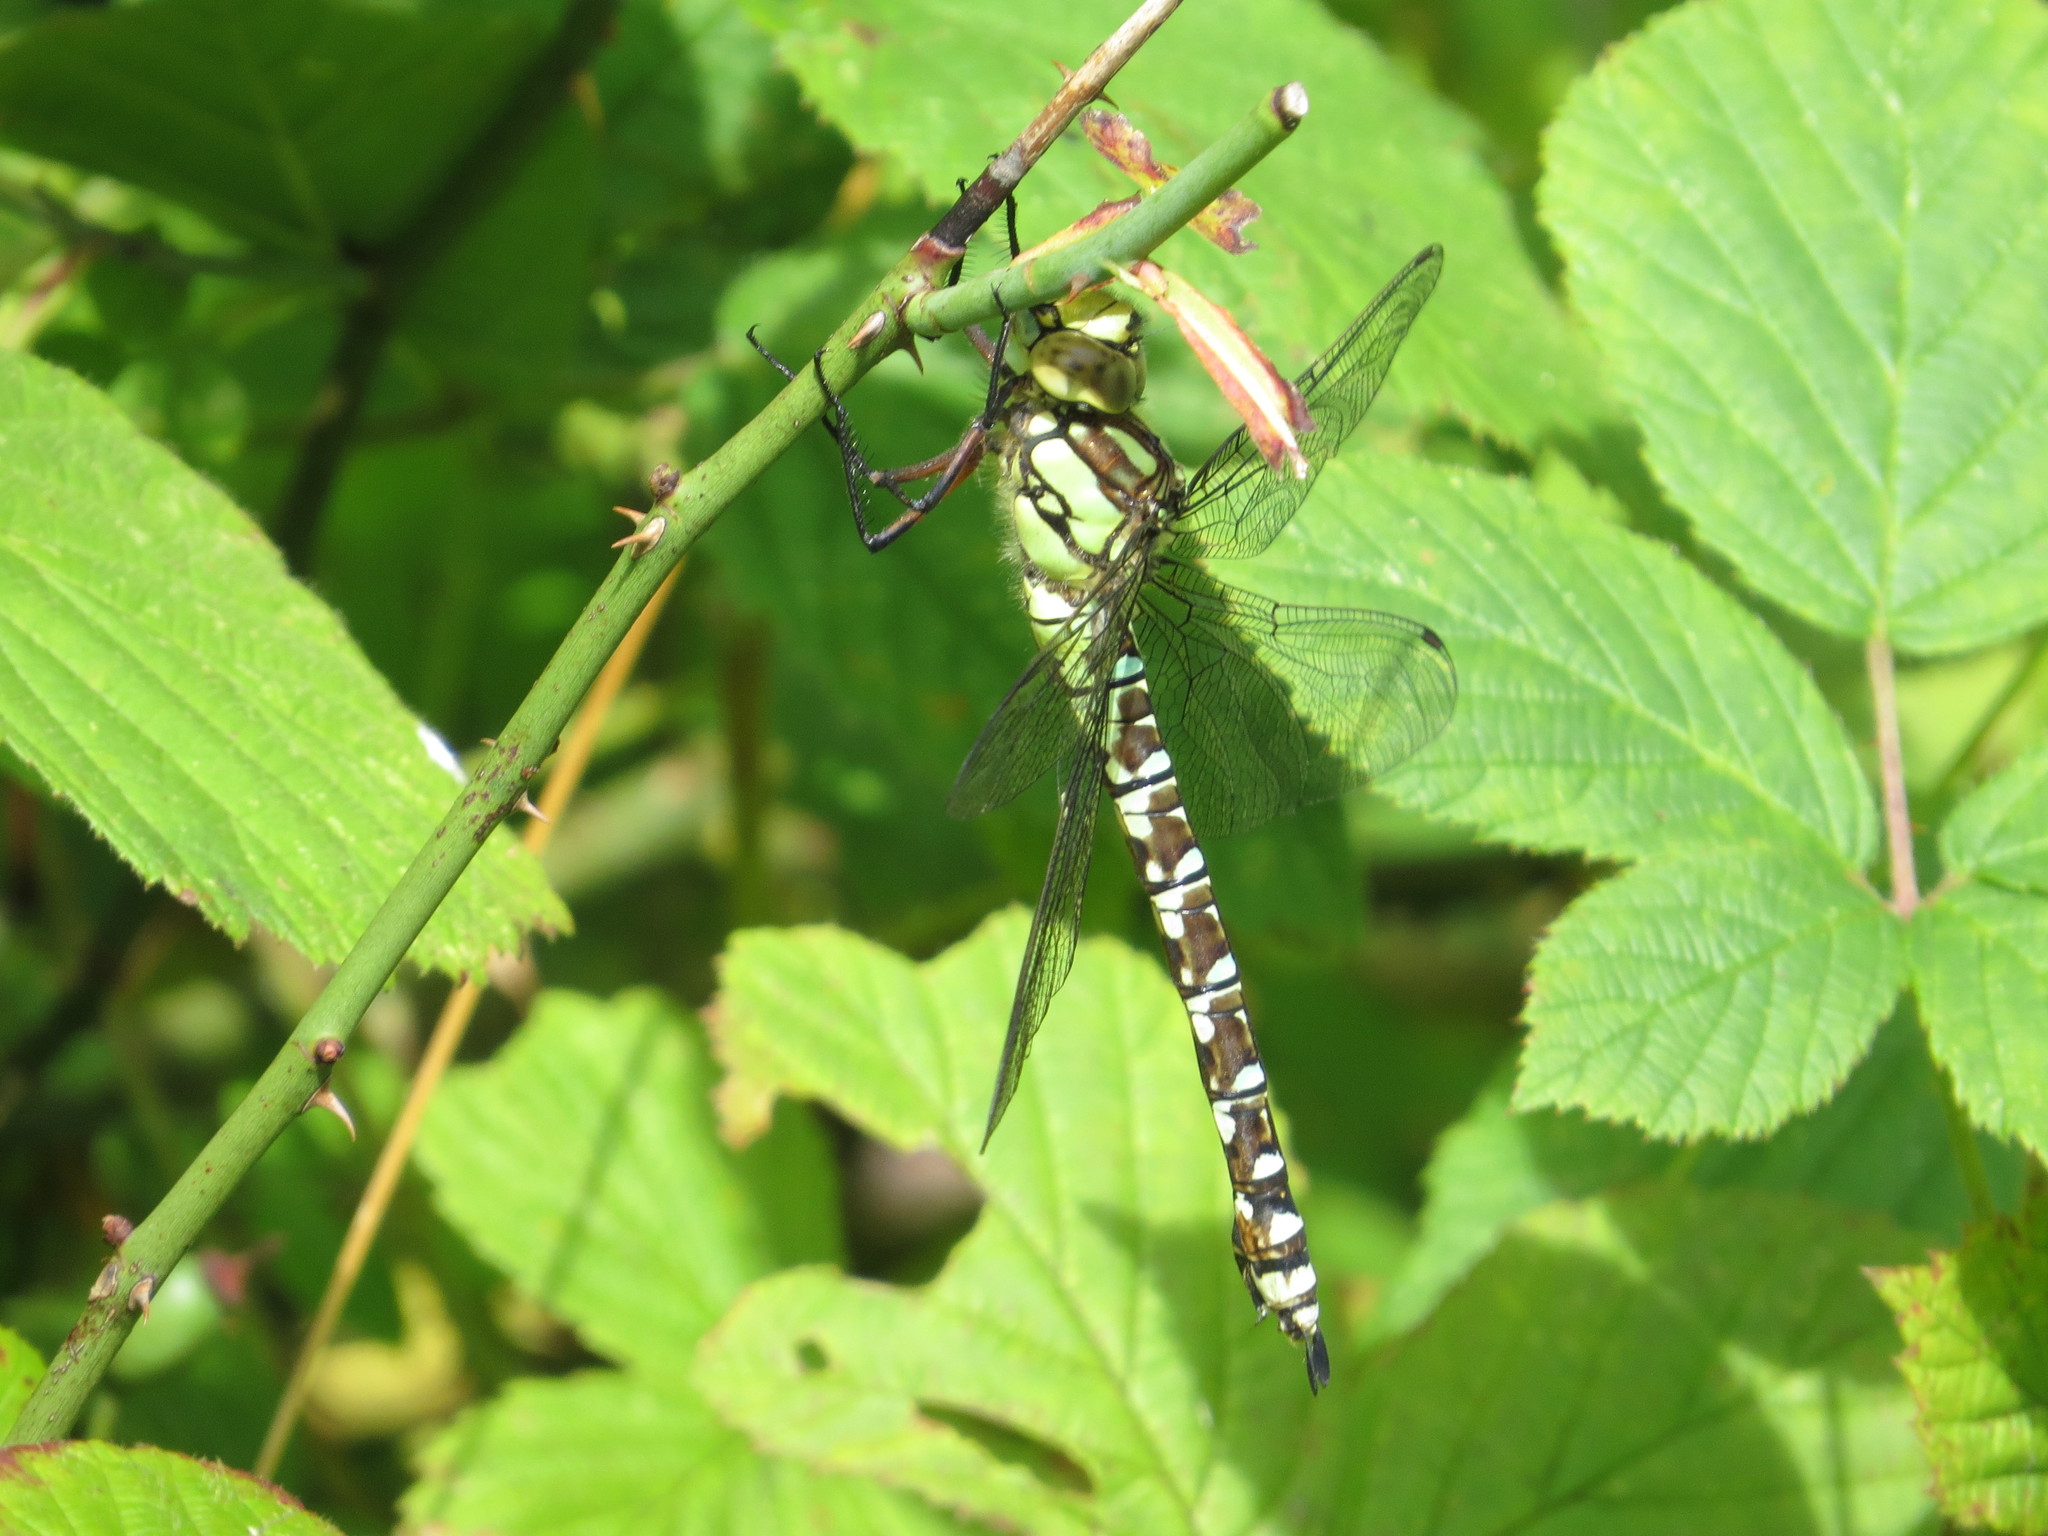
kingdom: Animalia
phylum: Arthropoda
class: Insecta
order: Odonata
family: Aeshnidae
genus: Aeshna
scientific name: Aeshna cyanea
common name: Southern hawker
